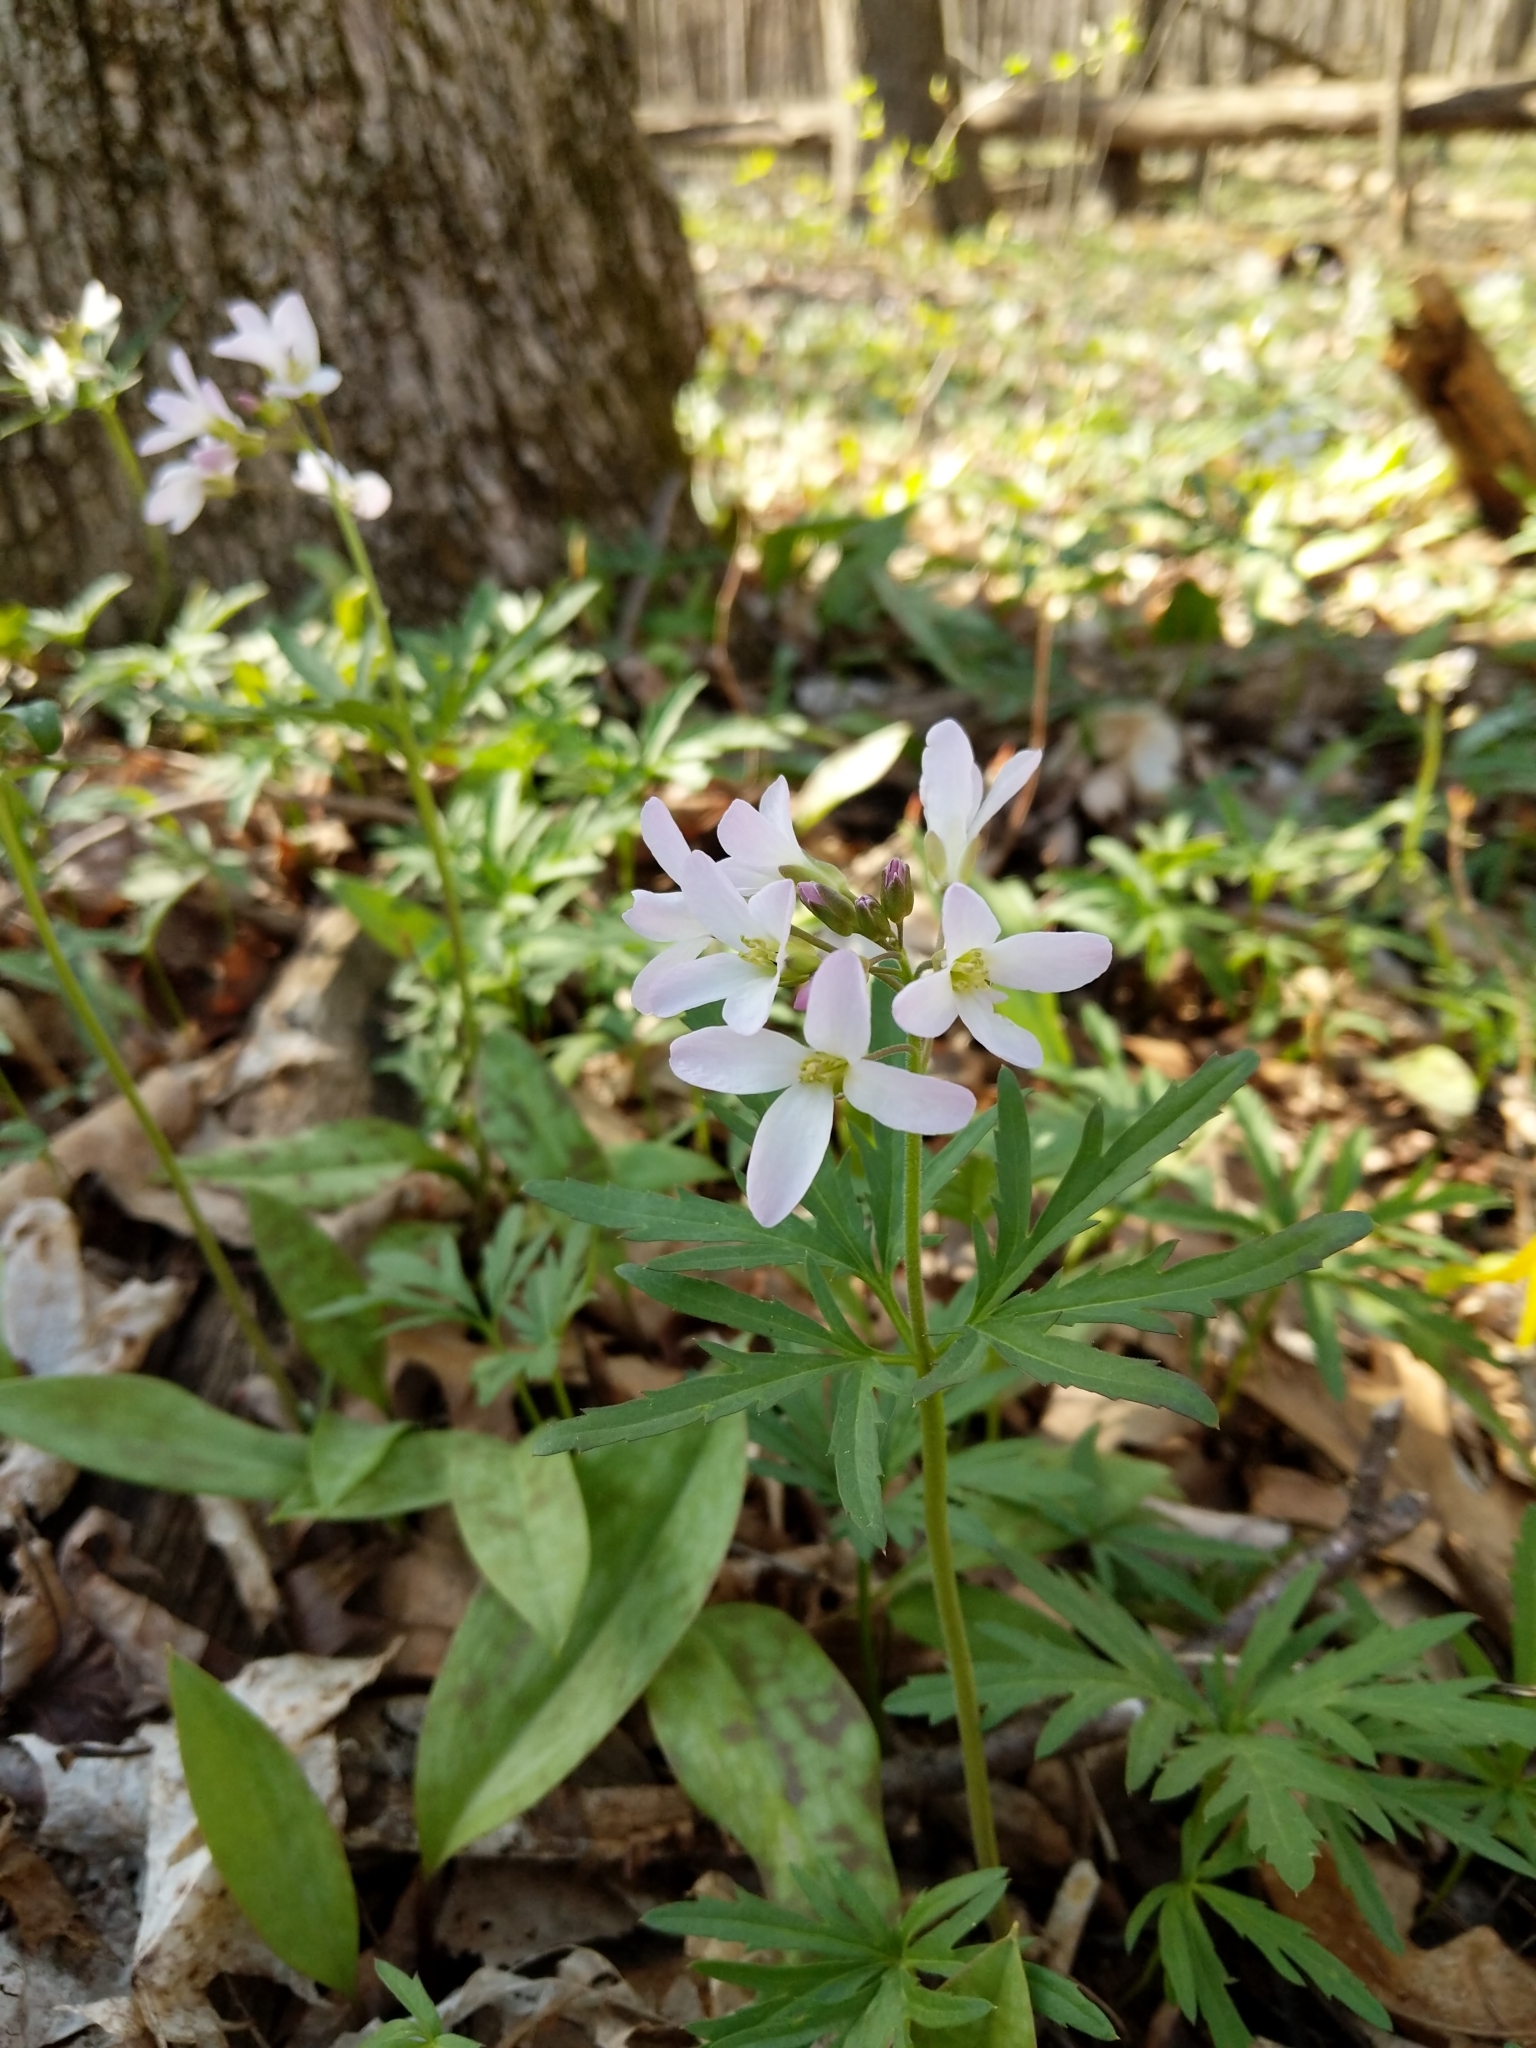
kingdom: Plantae
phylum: Tracheophyta
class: Magnoliopsida
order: Brassicales
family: Brassicaceae
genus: Cardamine
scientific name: Cardamine concatenata
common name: Cut-leaf toothcup
